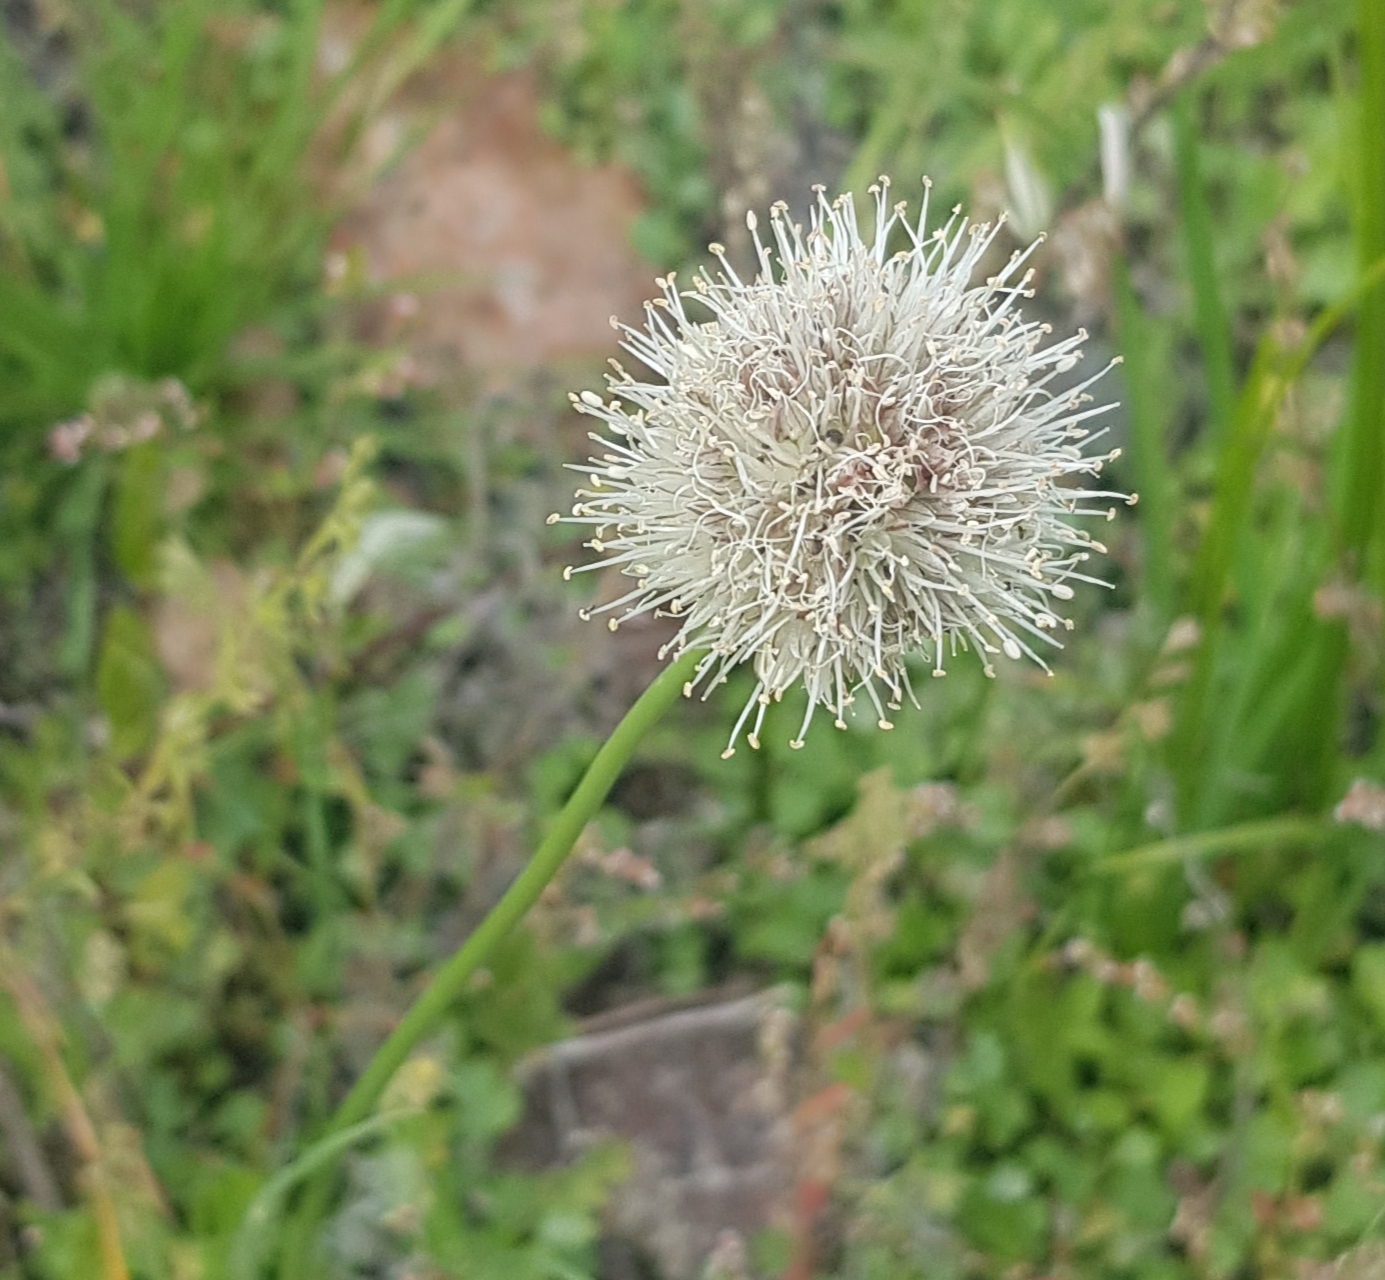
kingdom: Plantae
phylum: Tracheophyta
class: Liliopsida
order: Asparagales
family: Amaryllidaceae
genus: Allium
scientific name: Allium leucocephalum
